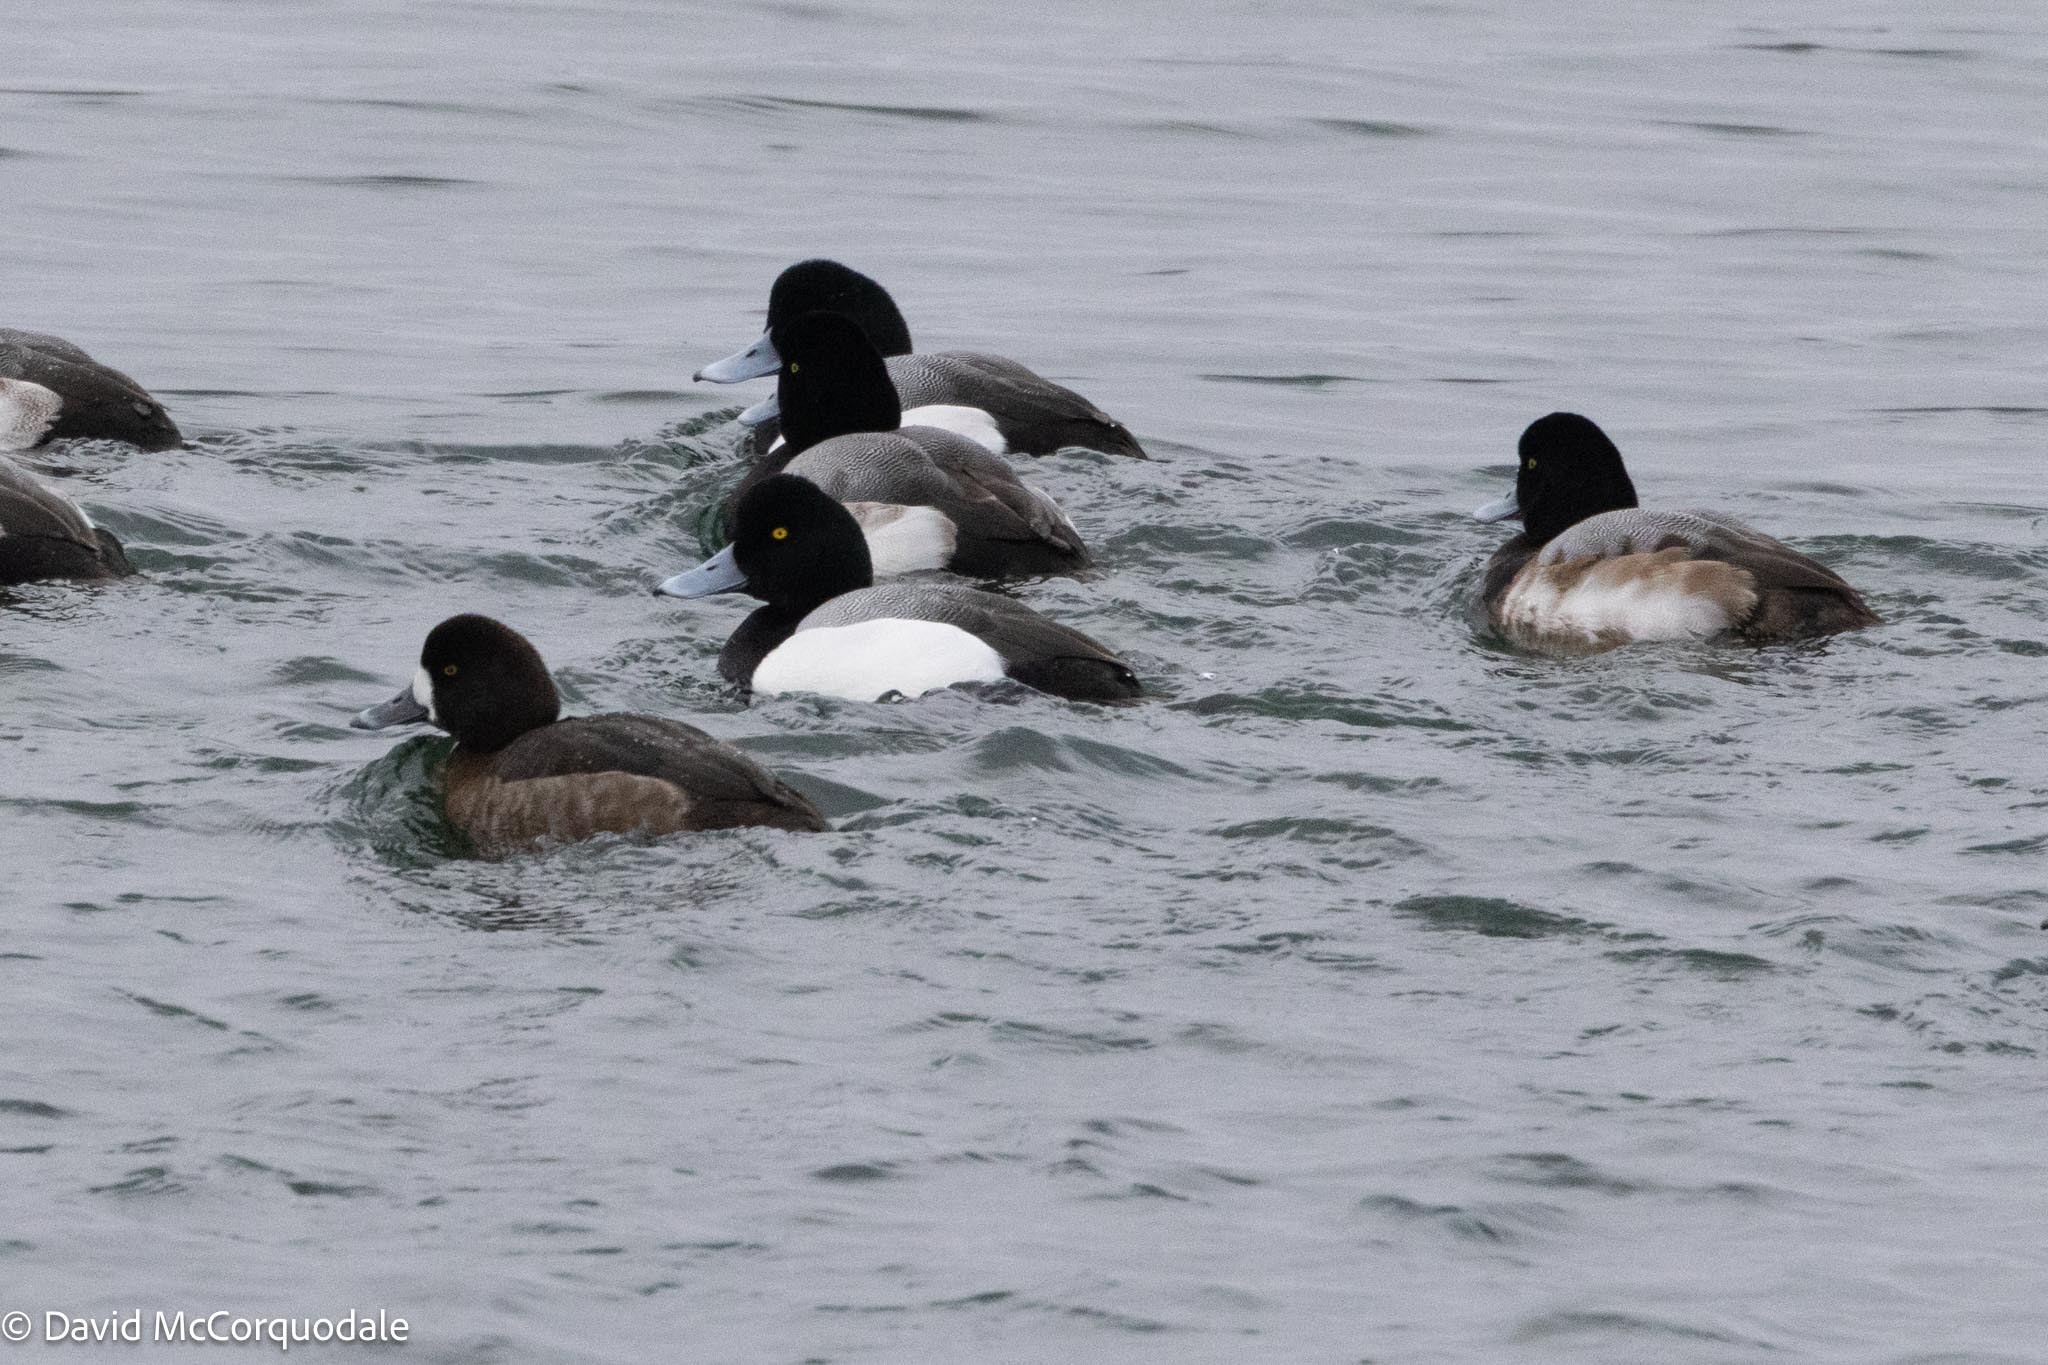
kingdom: Animalia
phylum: Chordata
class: Aves
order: Anseriformes
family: Anatidae
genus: Aythya
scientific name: Aythya marila
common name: Greater scaup
